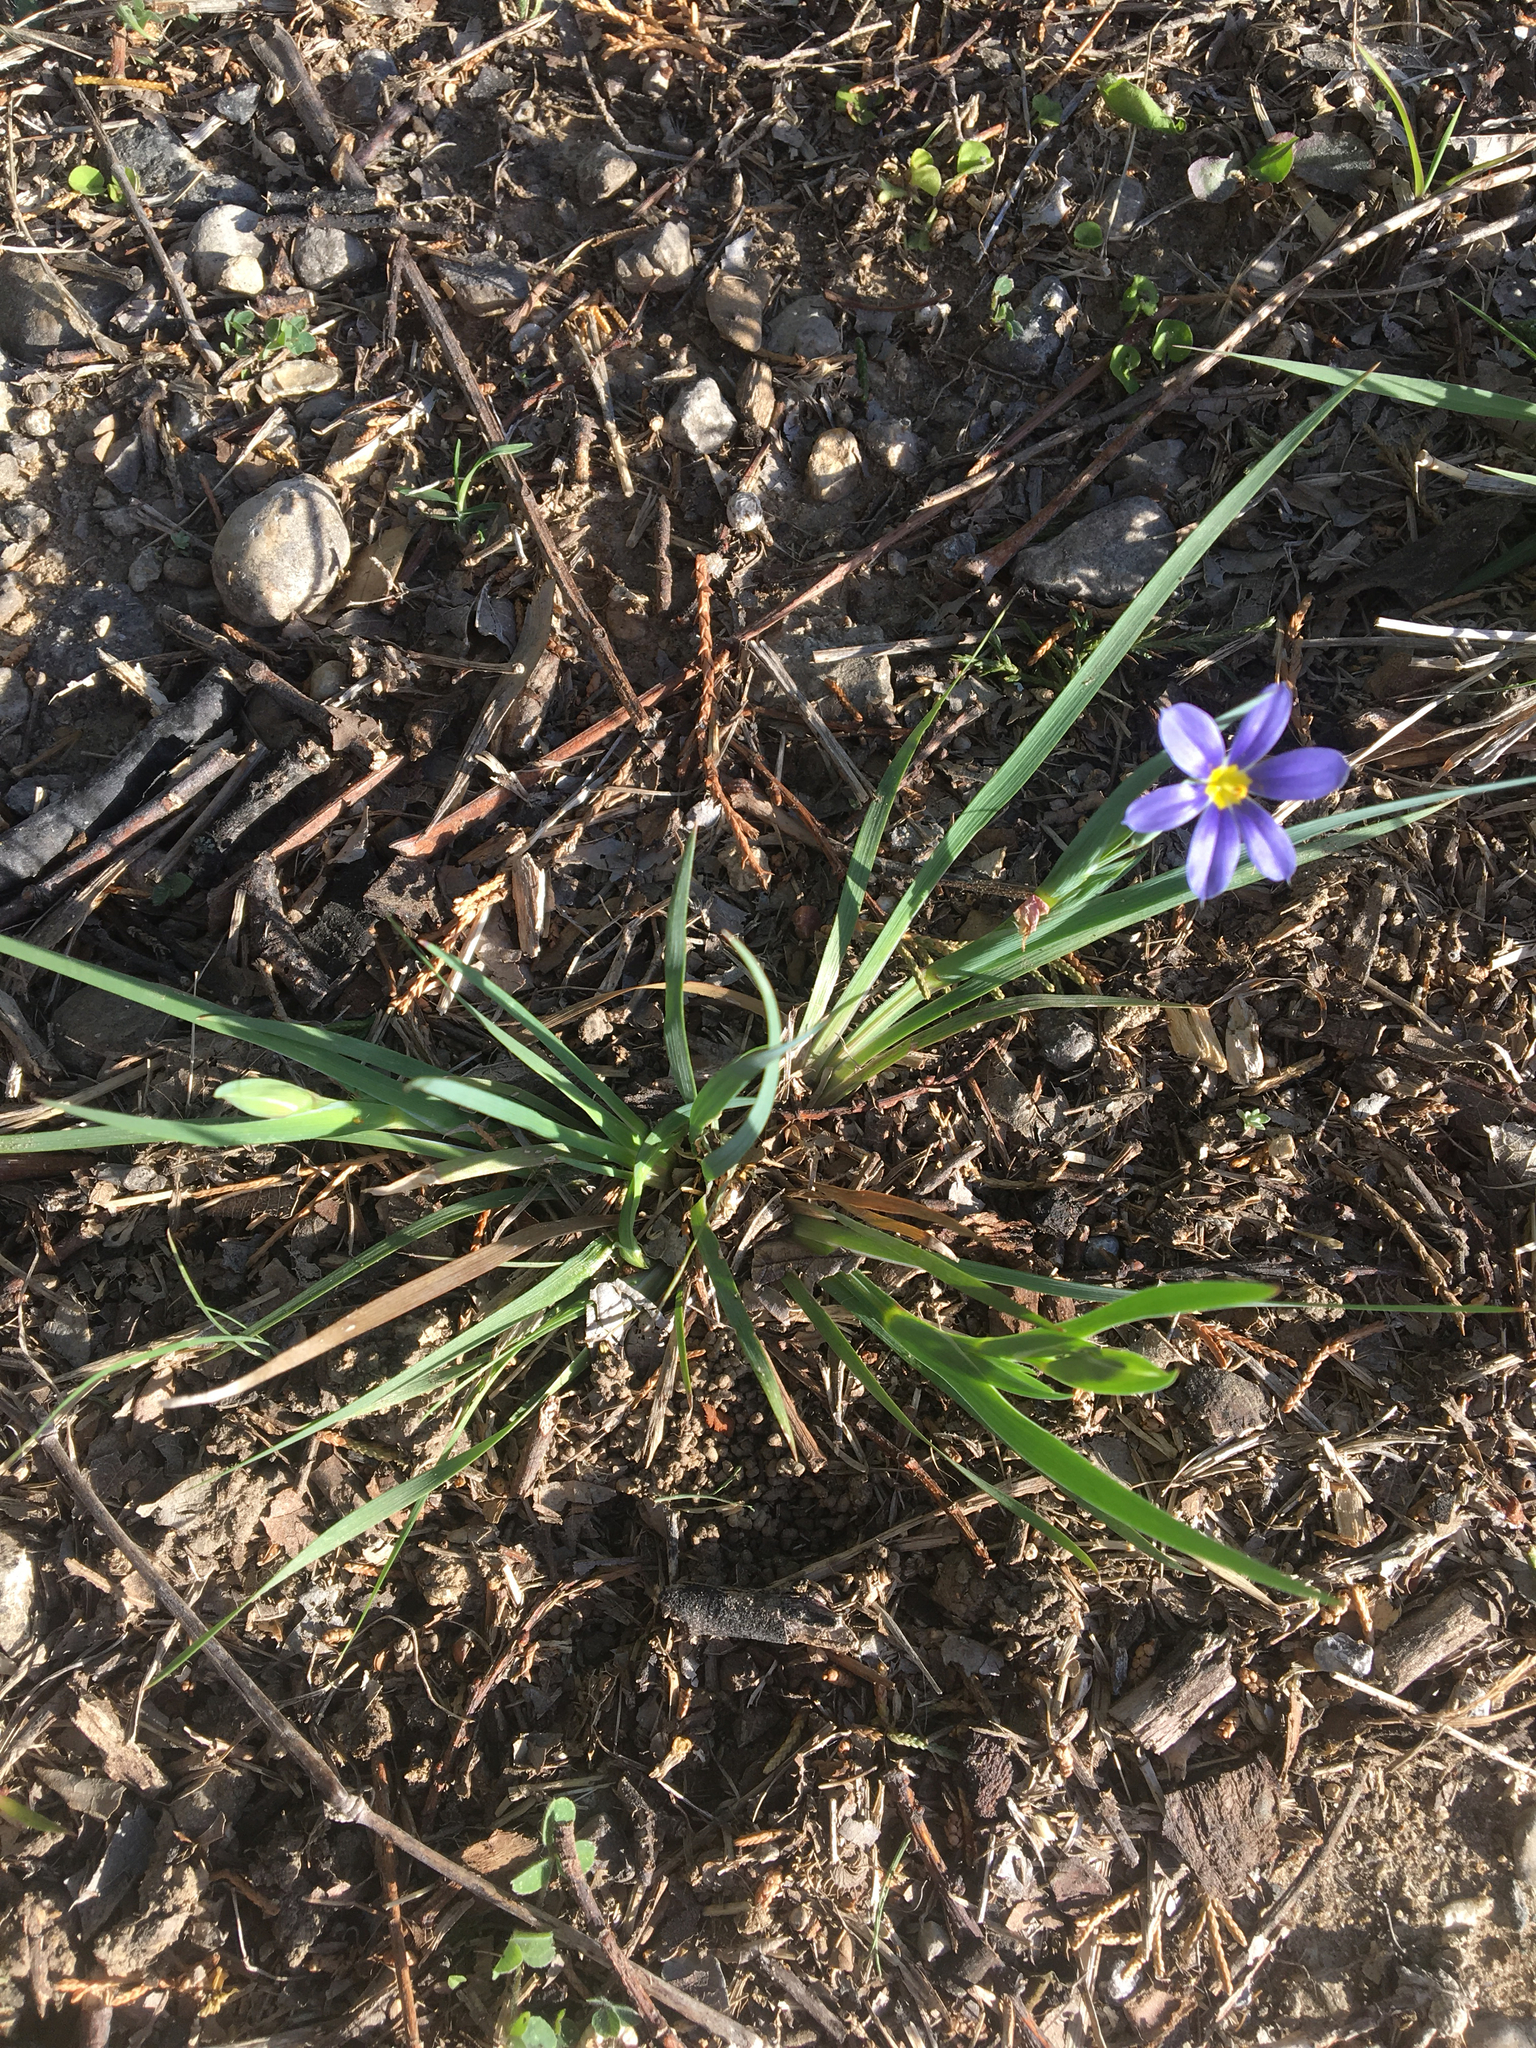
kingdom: Plantae
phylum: Tracheophyta
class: Liliopsida
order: Asparagales
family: Iridaceae
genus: Sisyrinchium
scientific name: Sisyrinchium pruinosum
